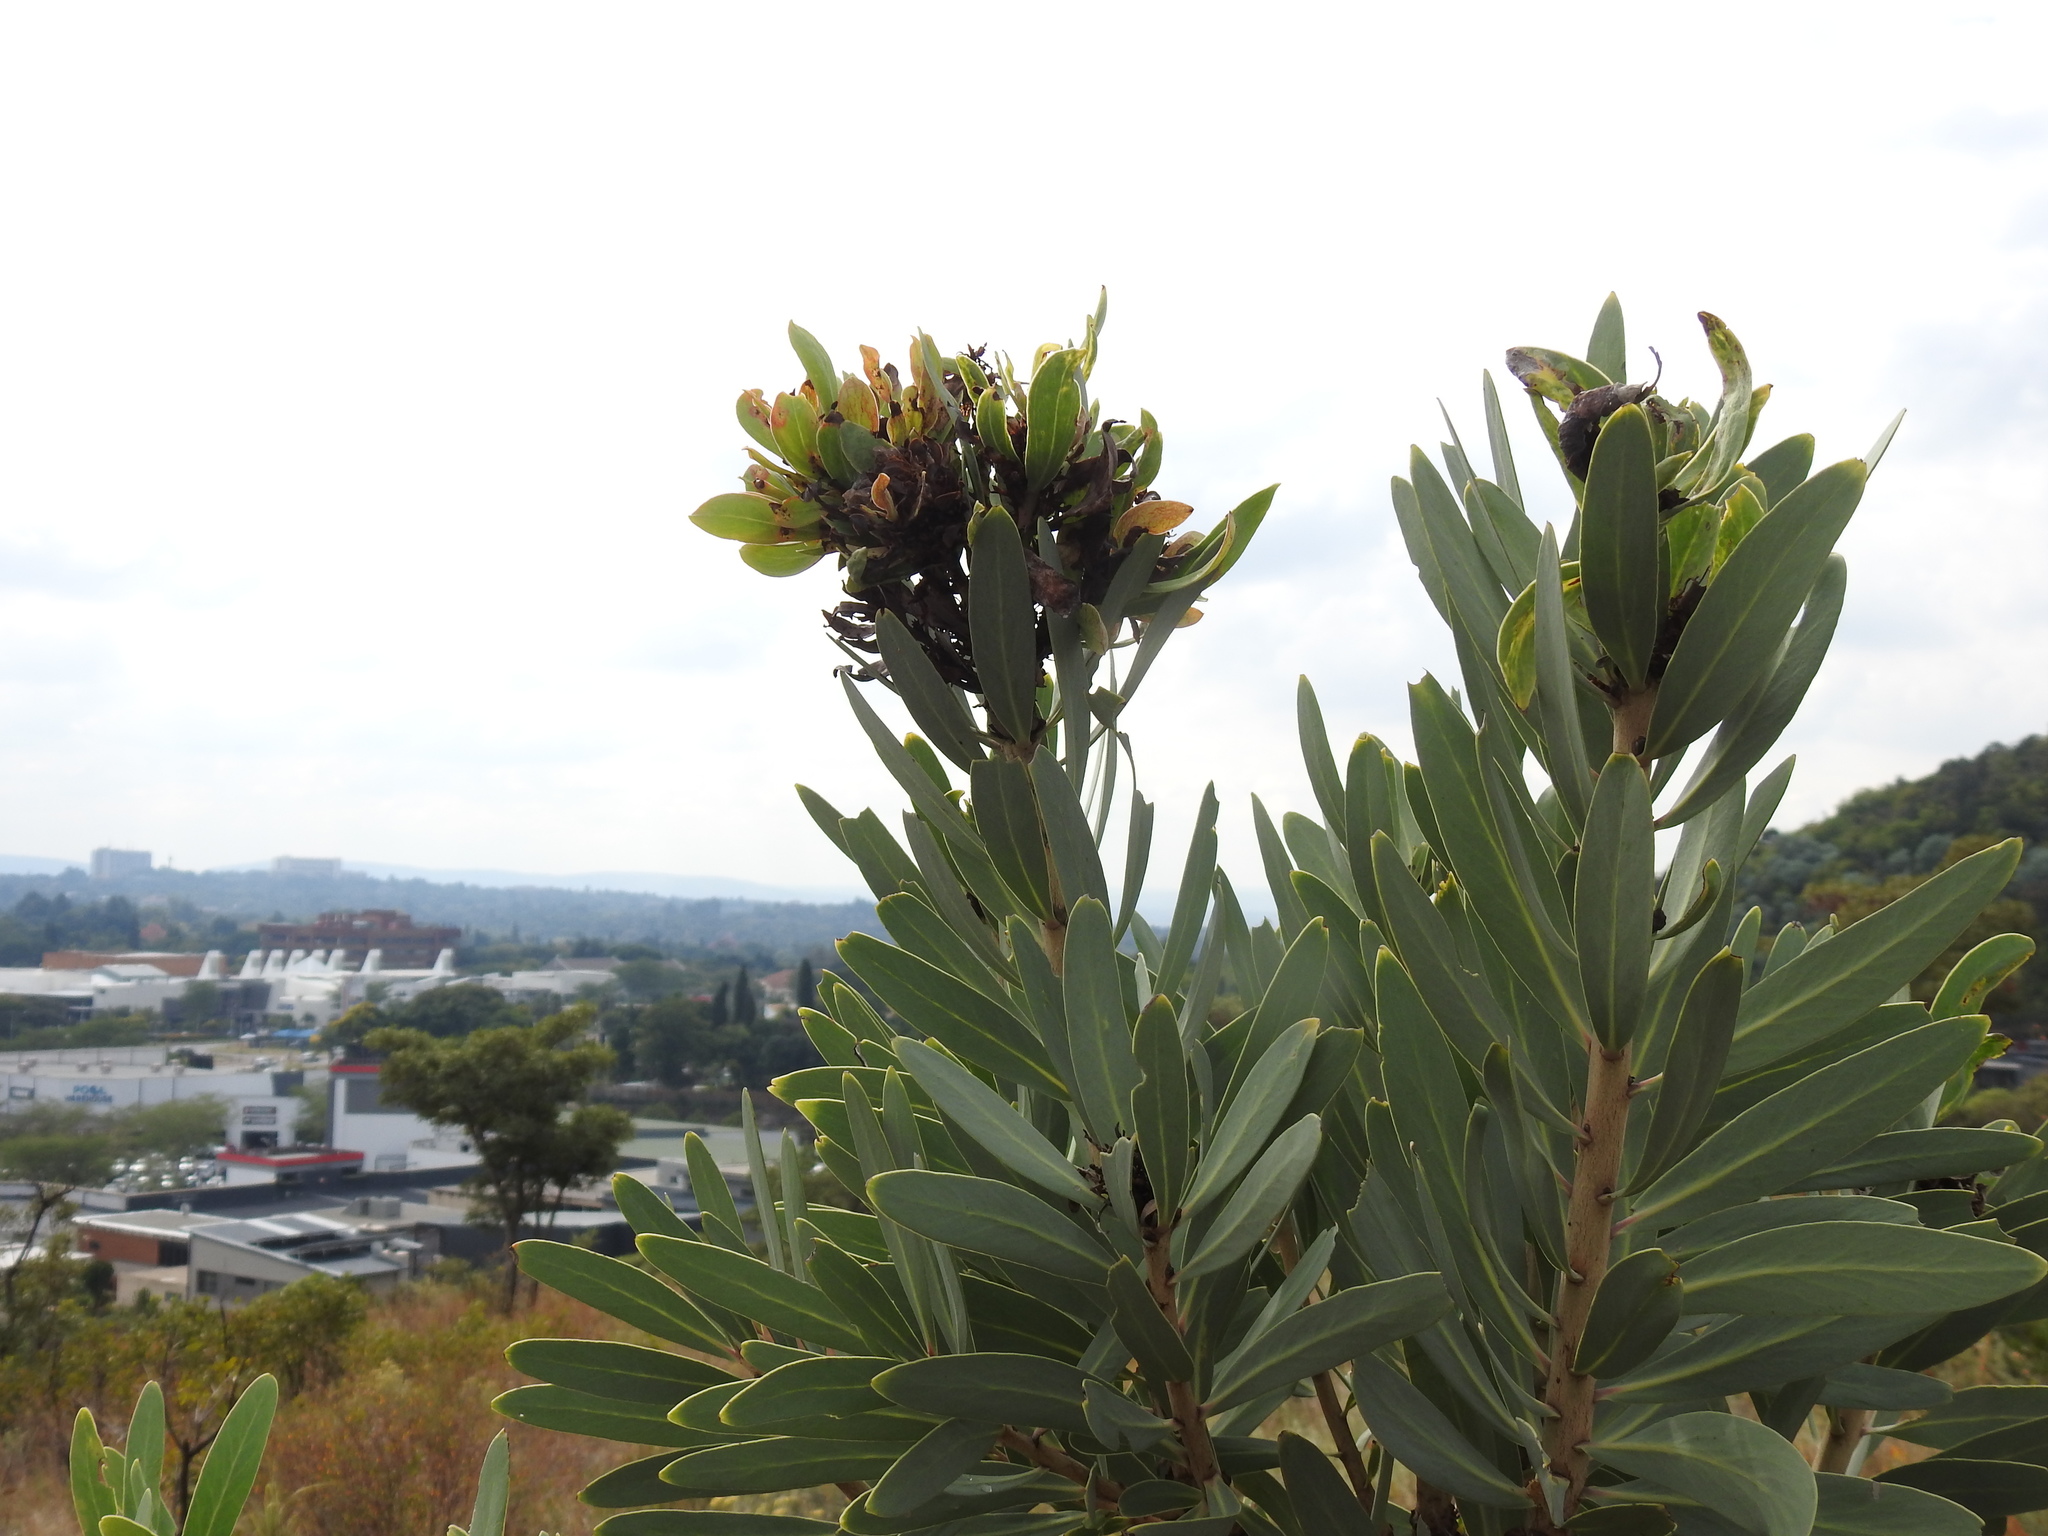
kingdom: Bacteria
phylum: Firmicutes
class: Bacilli
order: Acholeplasmatales
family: Acholeplasmataceae
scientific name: Acholeplasmataceae
